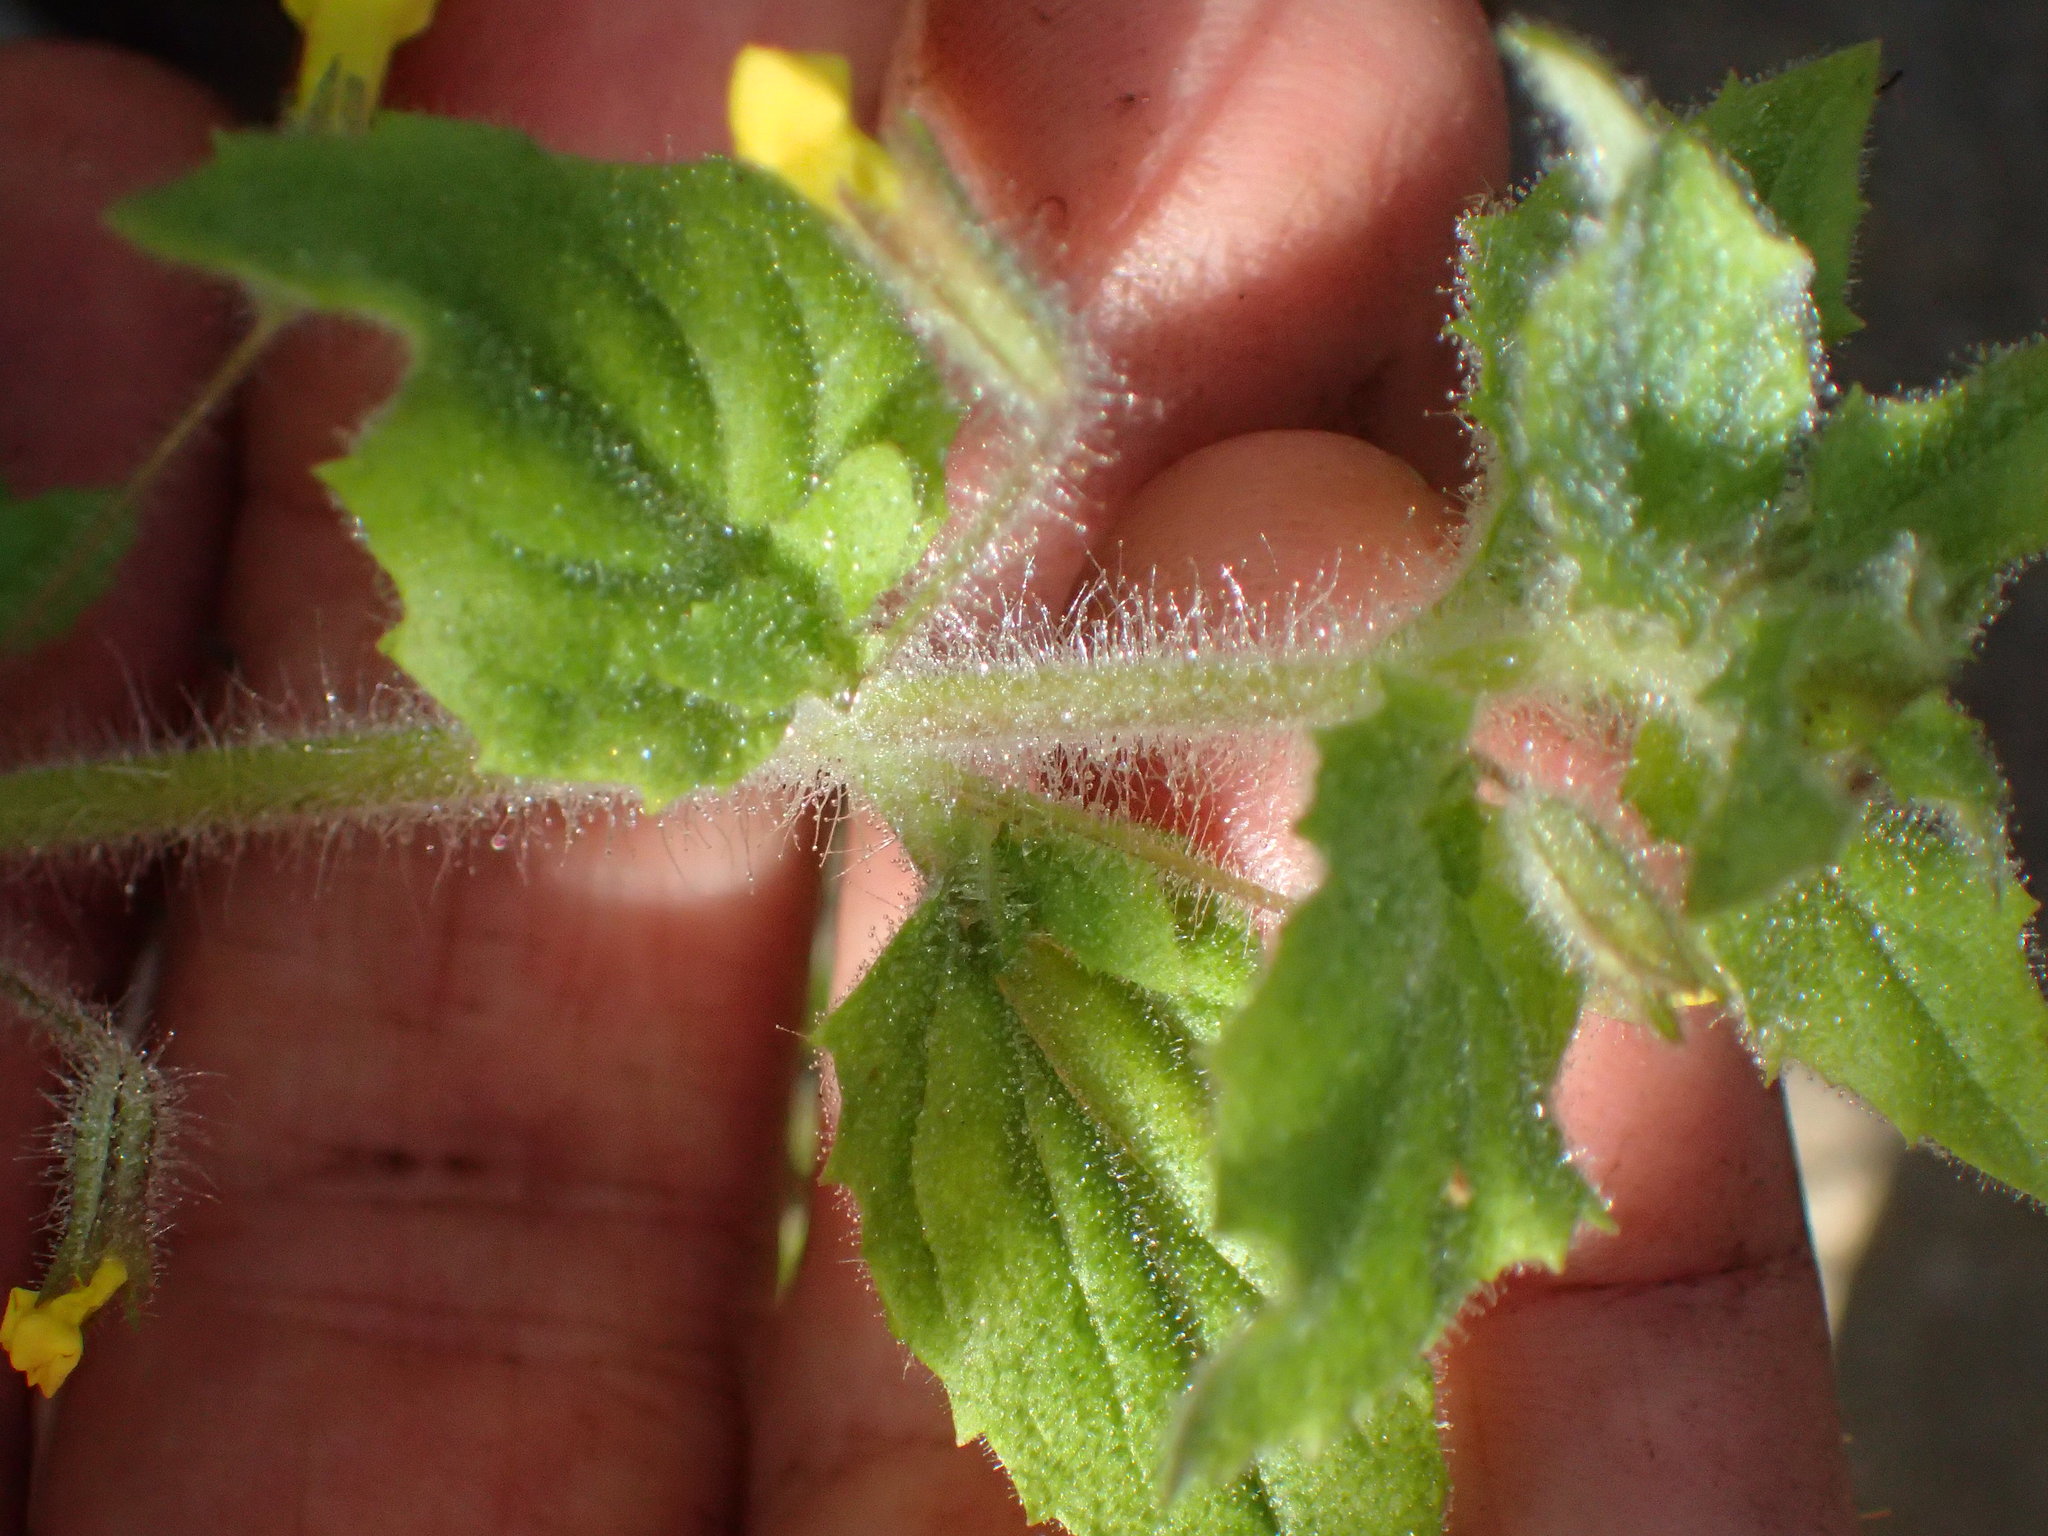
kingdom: Plantae
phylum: Tracheophyta
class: Magnoliopsida
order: Lamiales
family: Phrymaceae
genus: Erythranthe
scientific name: Erythranthe floribunda
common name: Floriferous monkeyflower
